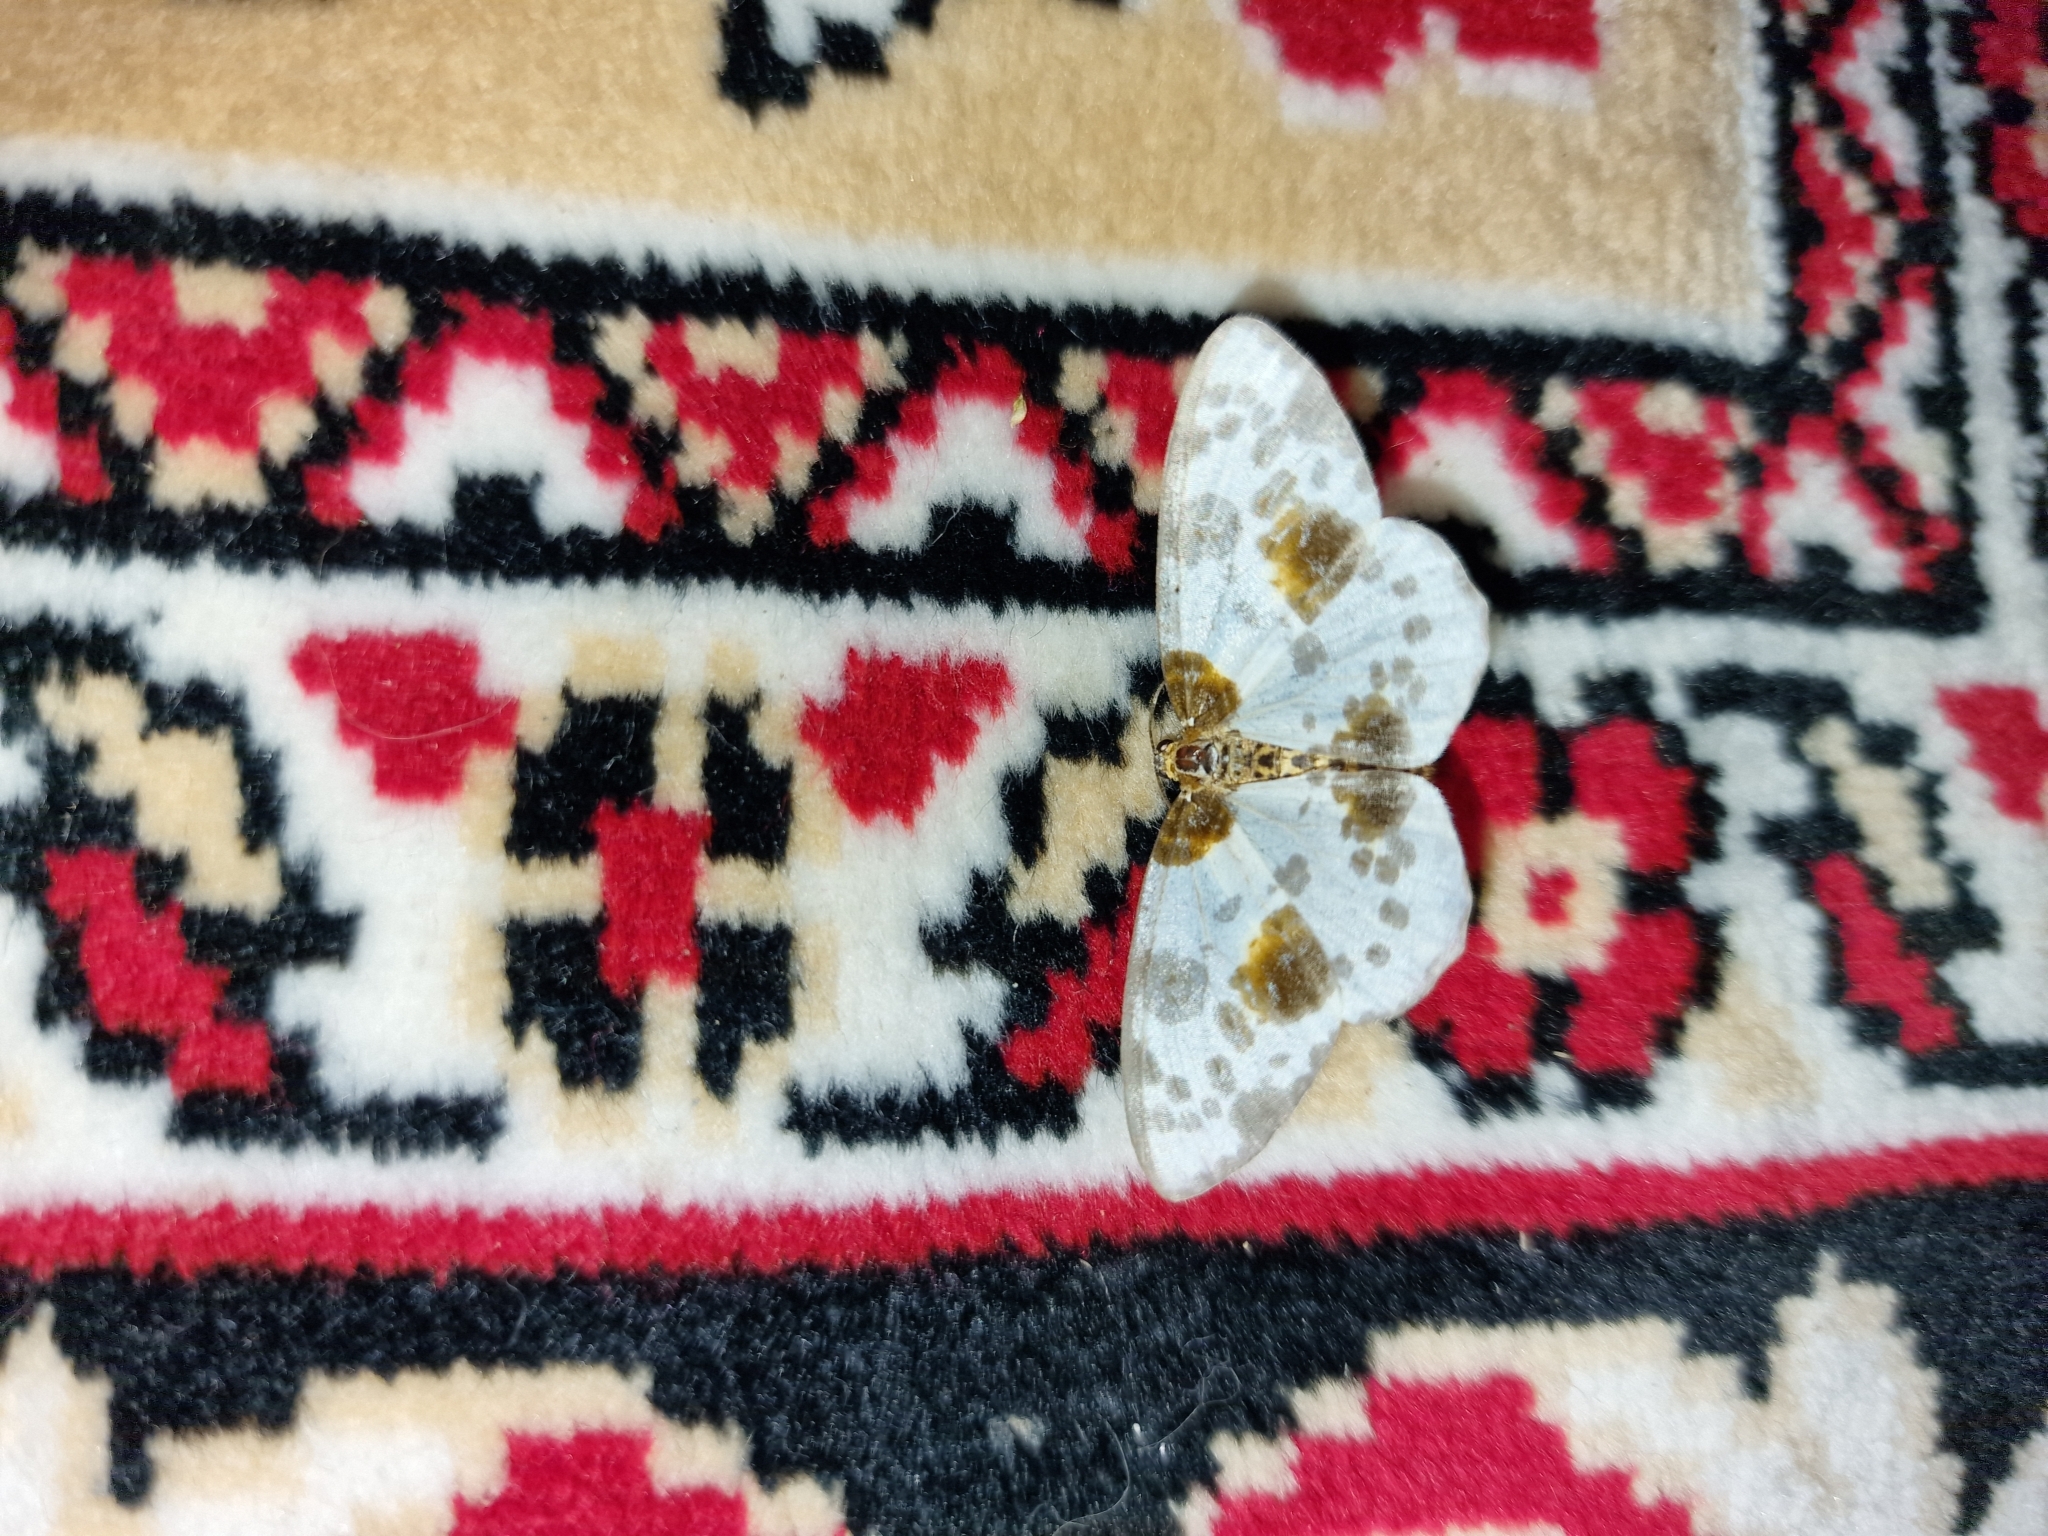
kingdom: Animalia
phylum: Arthropoda
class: Insecta
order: Lepidoptera
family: Geometridae
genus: Abraxas
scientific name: Abraxas sylvata
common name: Clouded magpie
